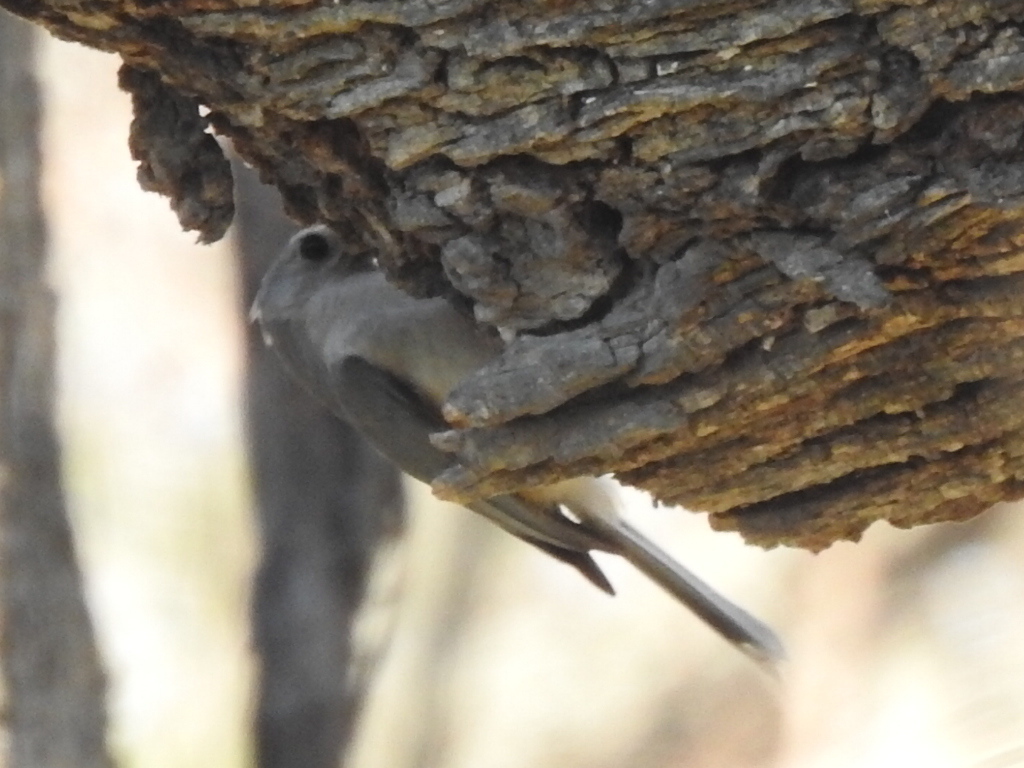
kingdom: Animalia
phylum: Chordata
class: Aves
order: Passeriformes
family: Paridae
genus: Baeolophus
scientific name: Baeolophus bicolor
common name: Tufted titmouse
